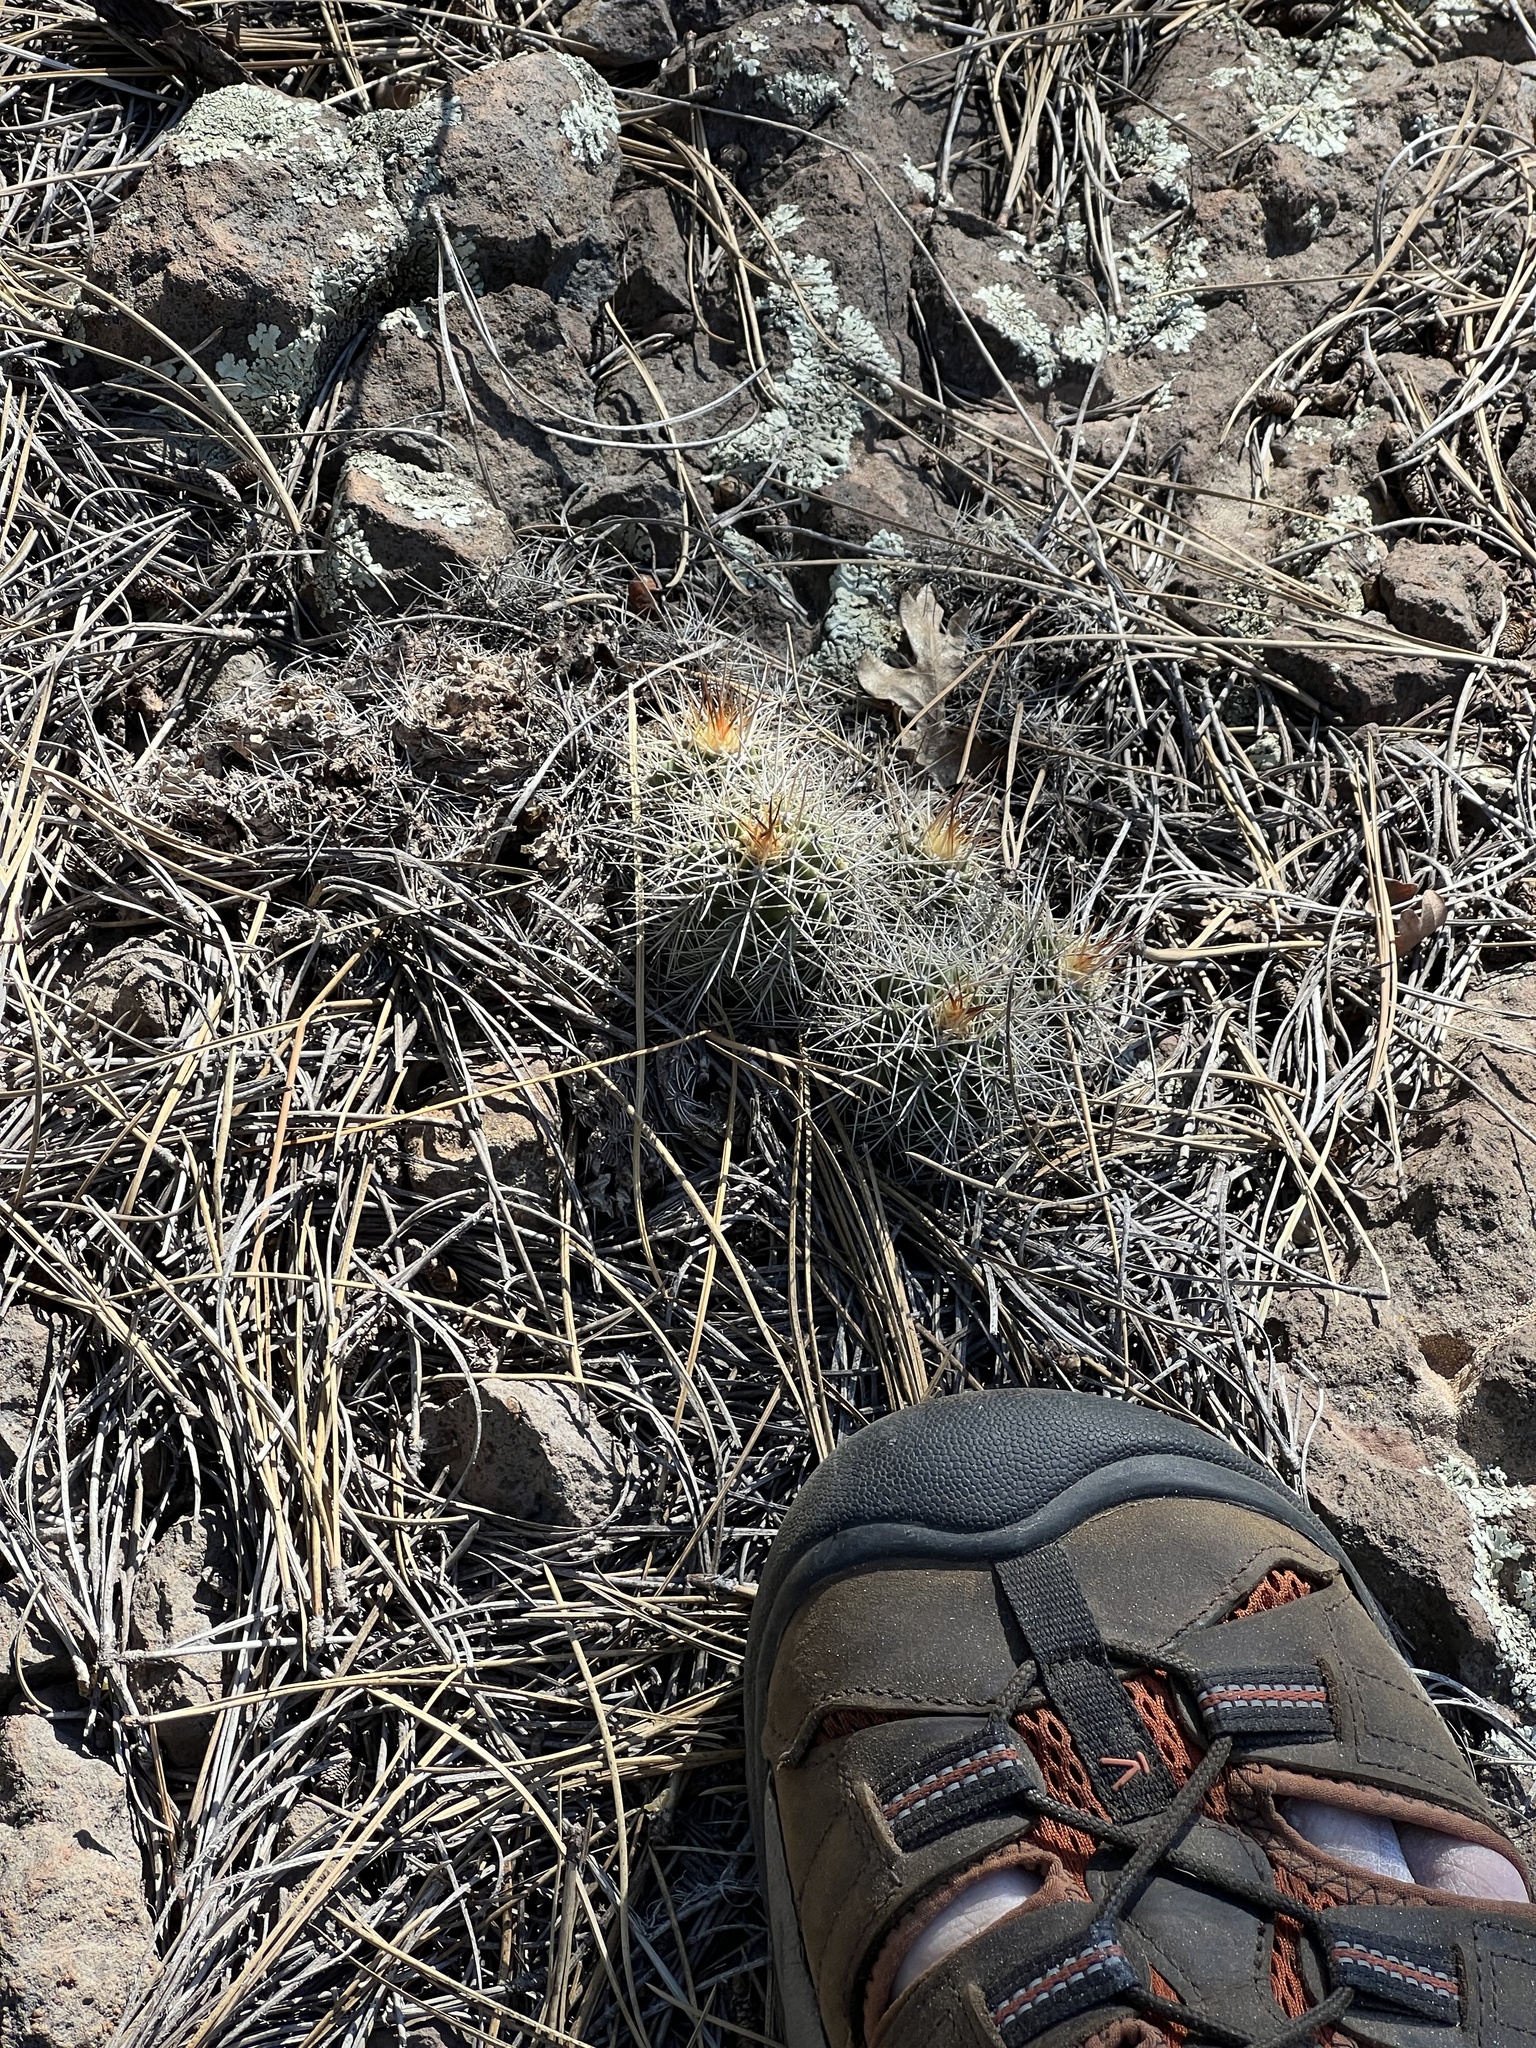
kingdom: Plantae
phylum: Tracheophyta
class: Magnoliopsida
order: Caryophyllales
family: Cactaceae
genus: Echinocereus
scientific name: Echinocereus bakeri
